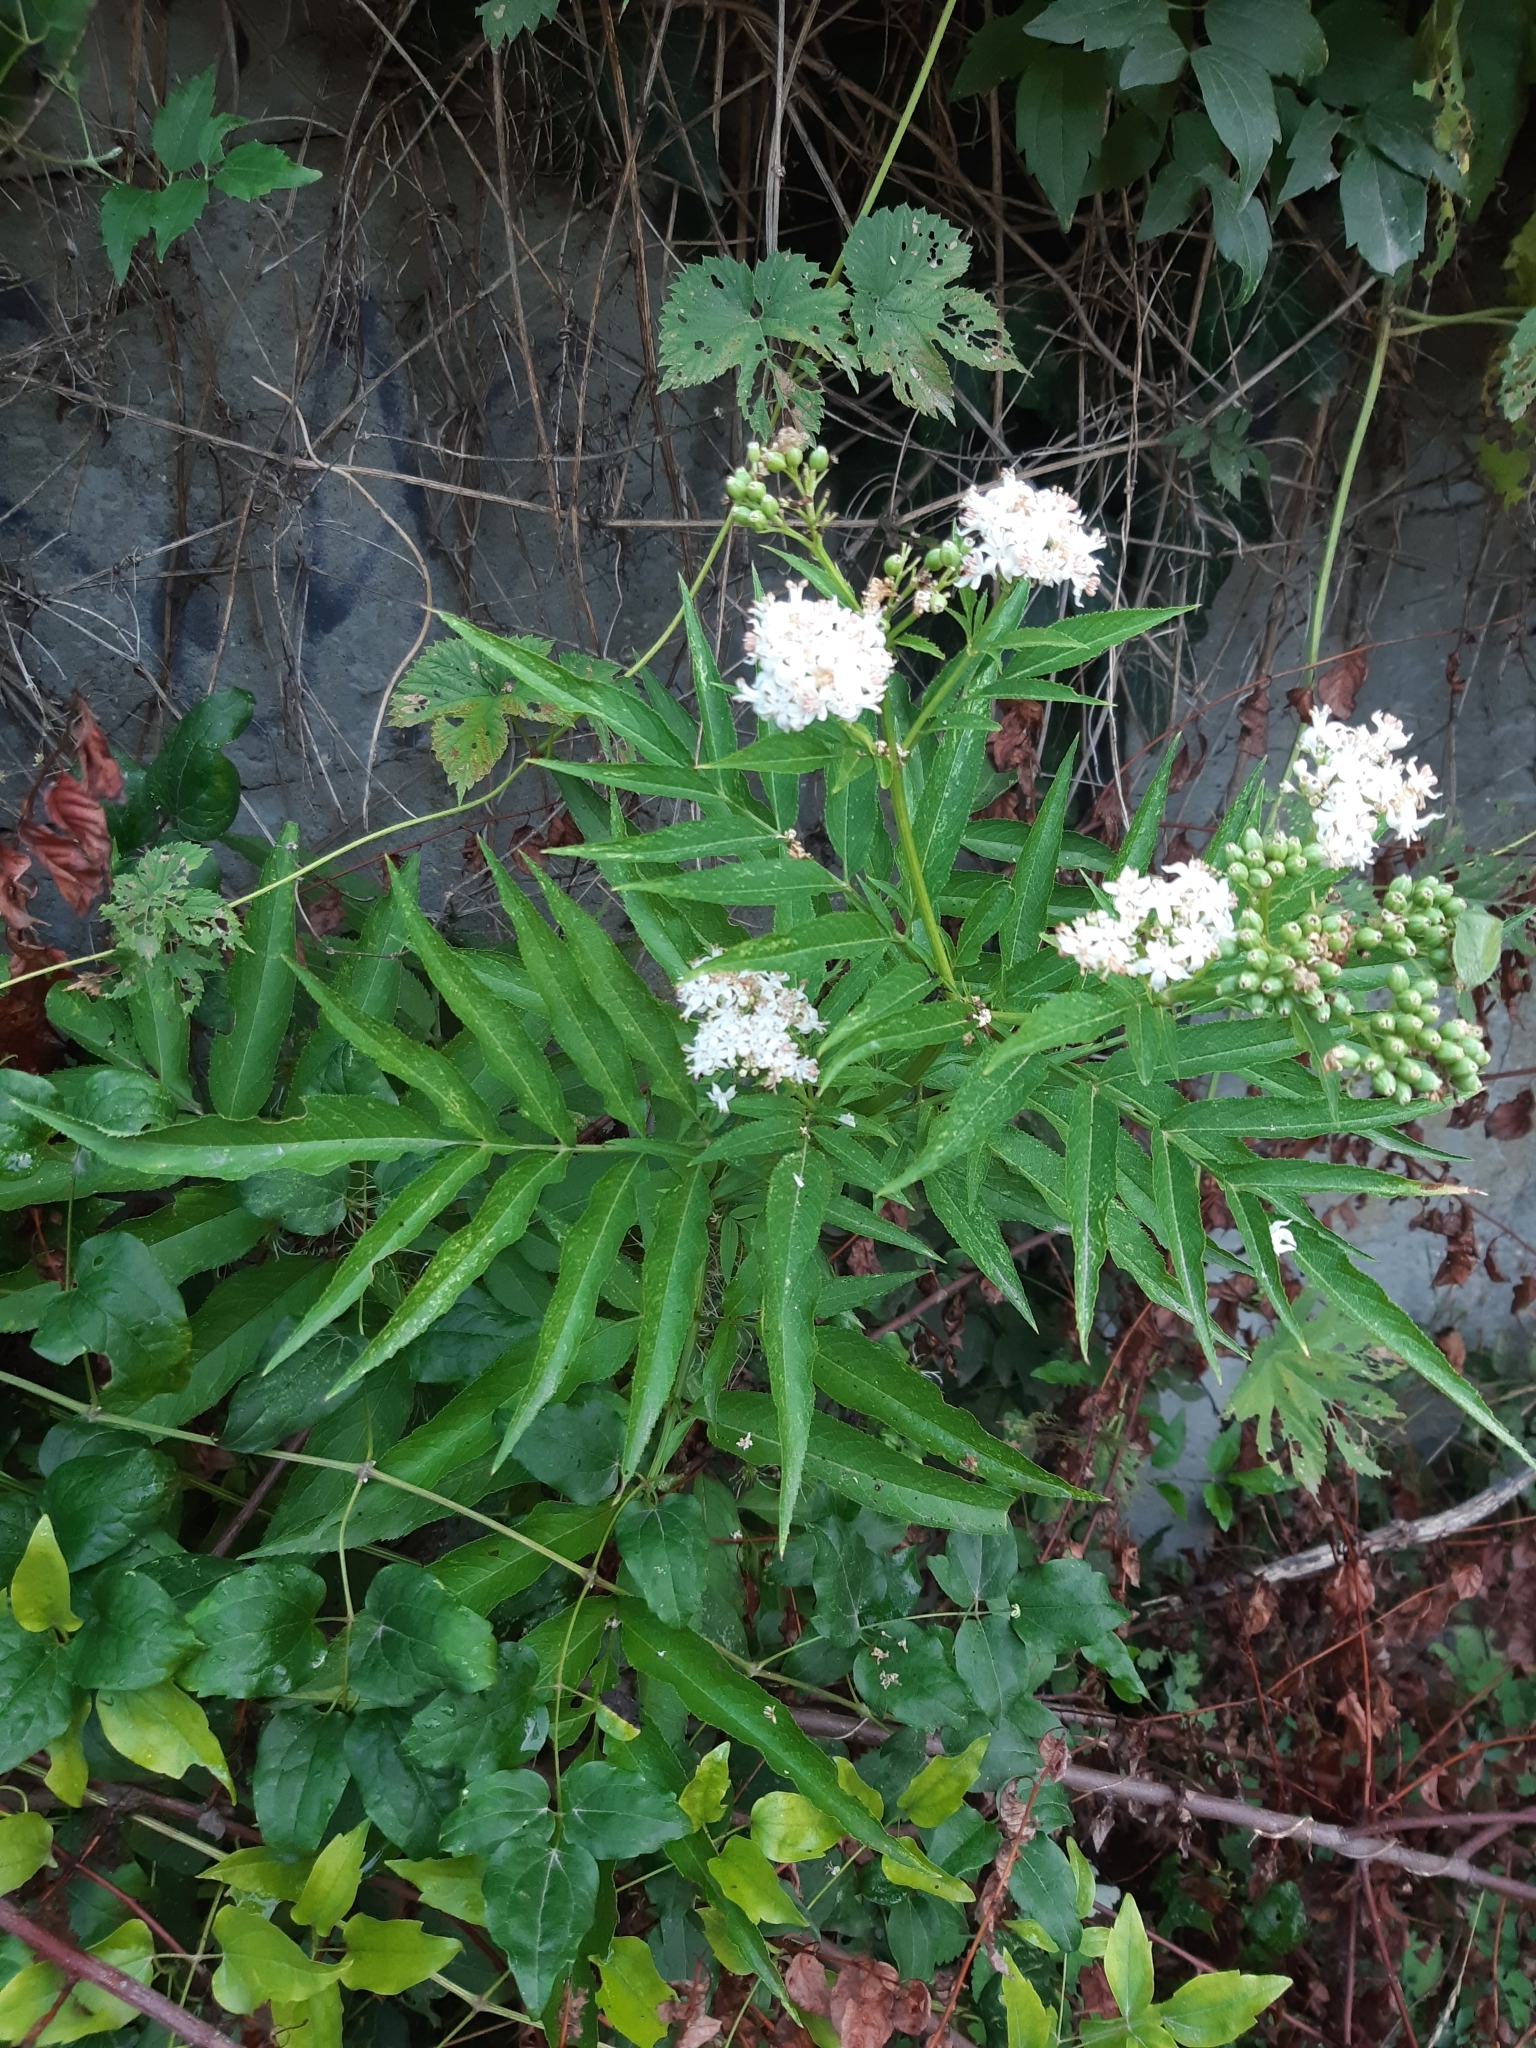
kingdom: Plantae
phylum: Tracheophyta
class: Magnoliopsida
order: Dipsacales
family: Viburnaceae
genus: Sambucus
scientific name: Sambucus ebulus
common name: Dwarf elder
